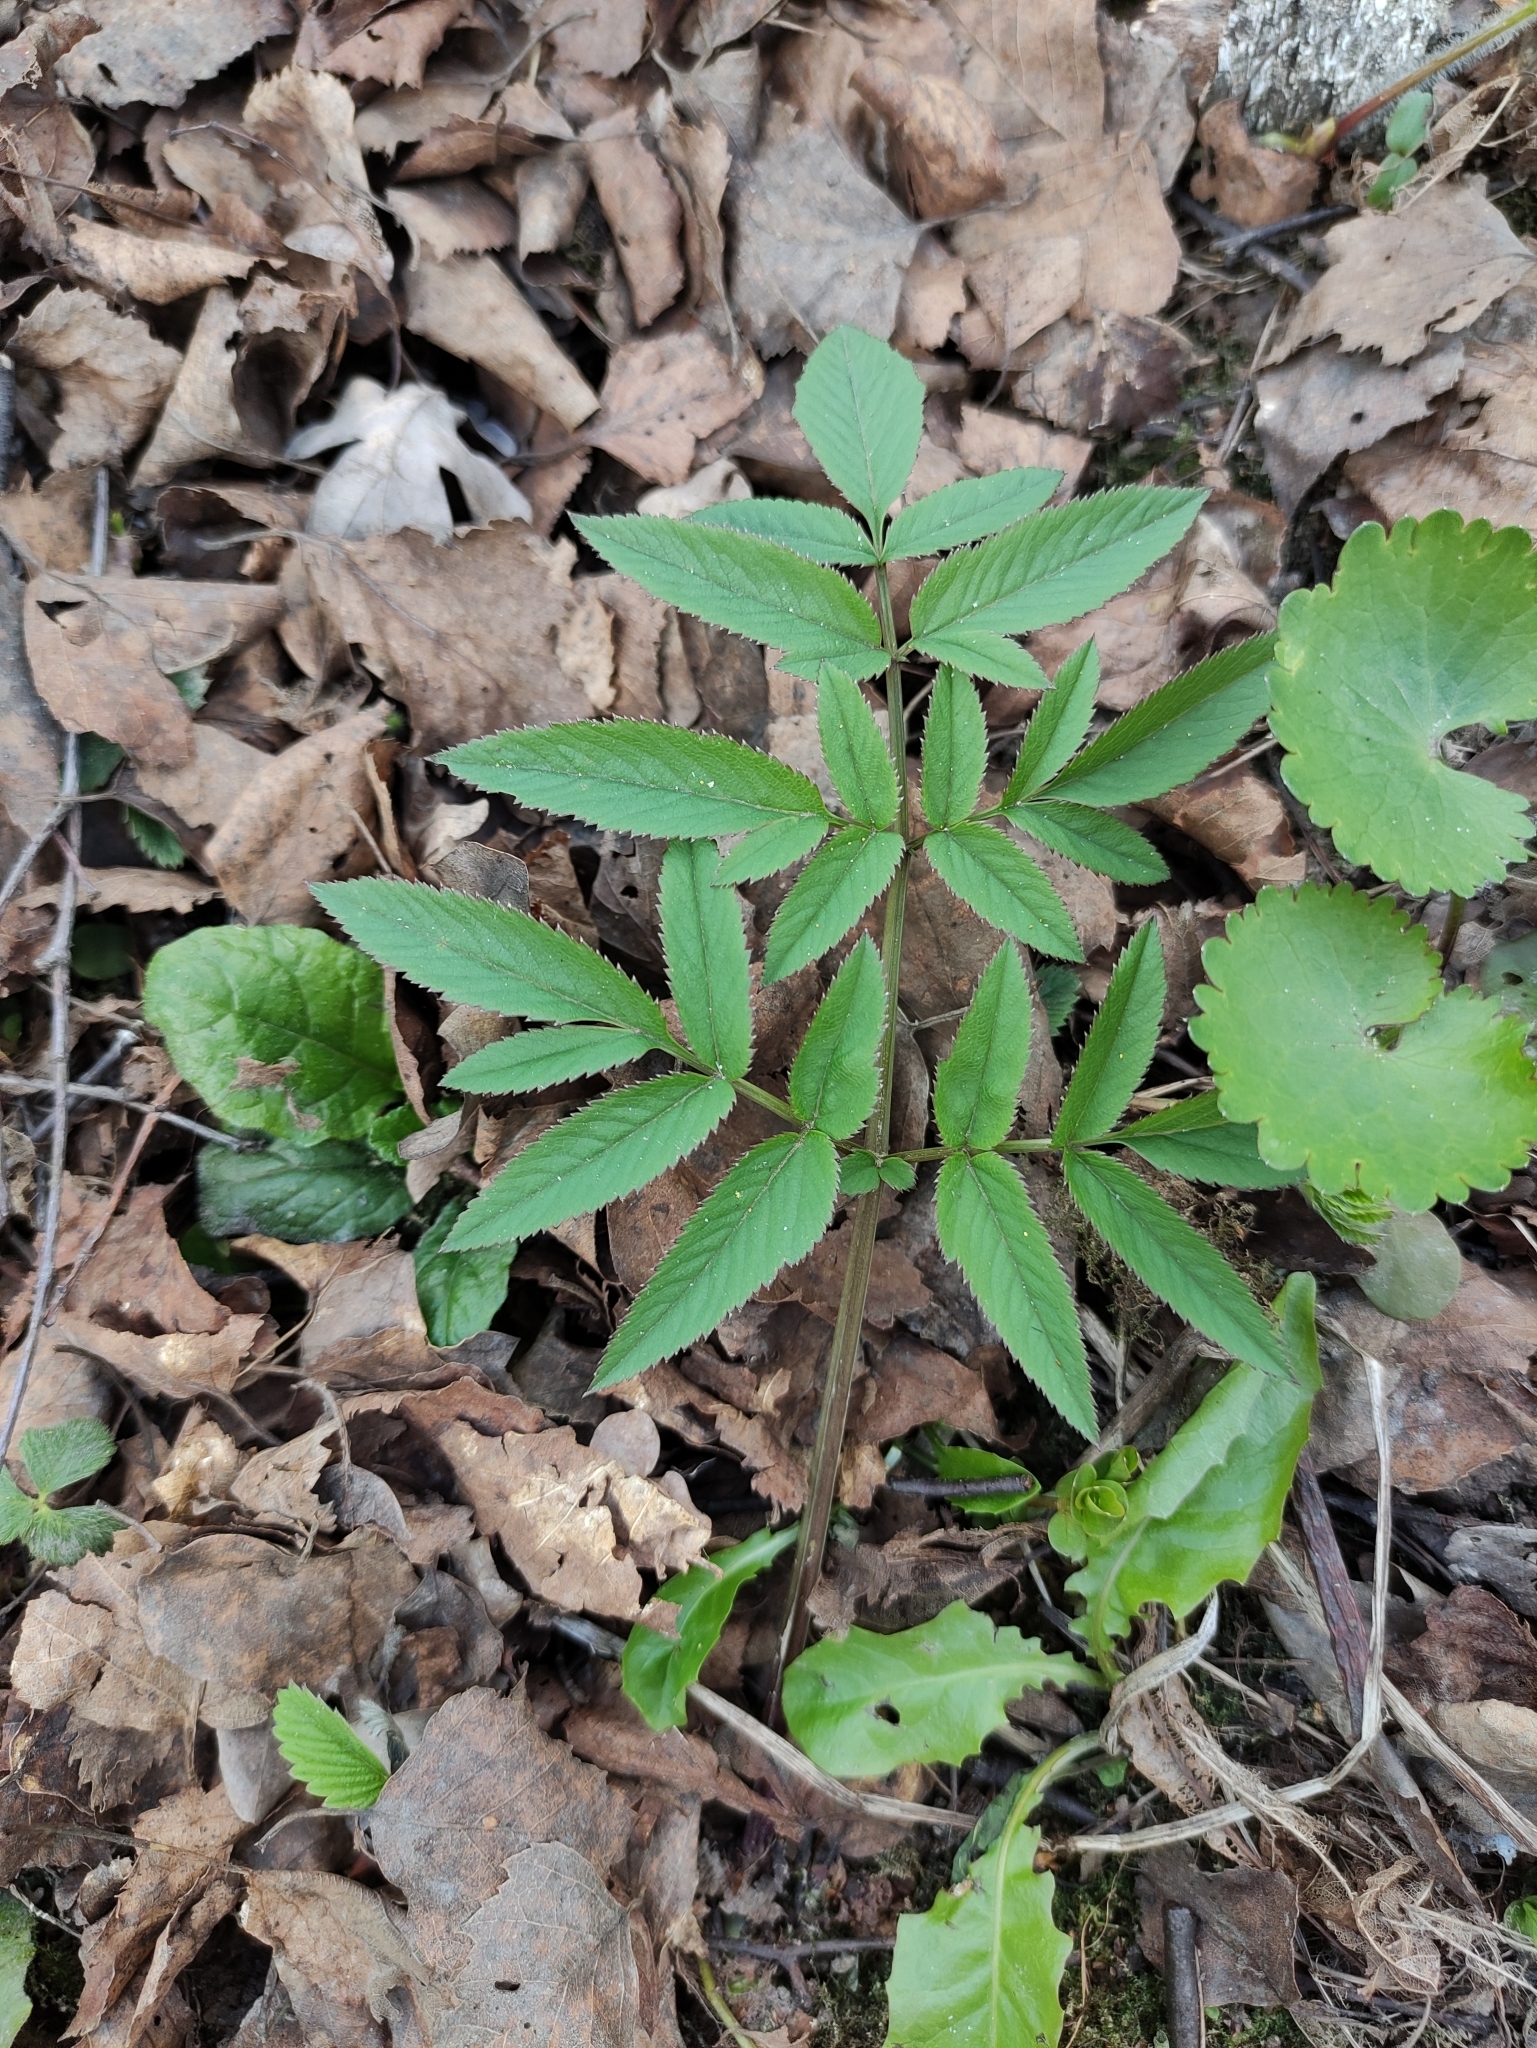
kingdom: Plantae
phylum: Tracheophyta
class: Magnoliopsida
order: Apiales
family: Apiaceae
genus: Angelica
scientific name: Angelica sylvestris
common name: Wild angelica
